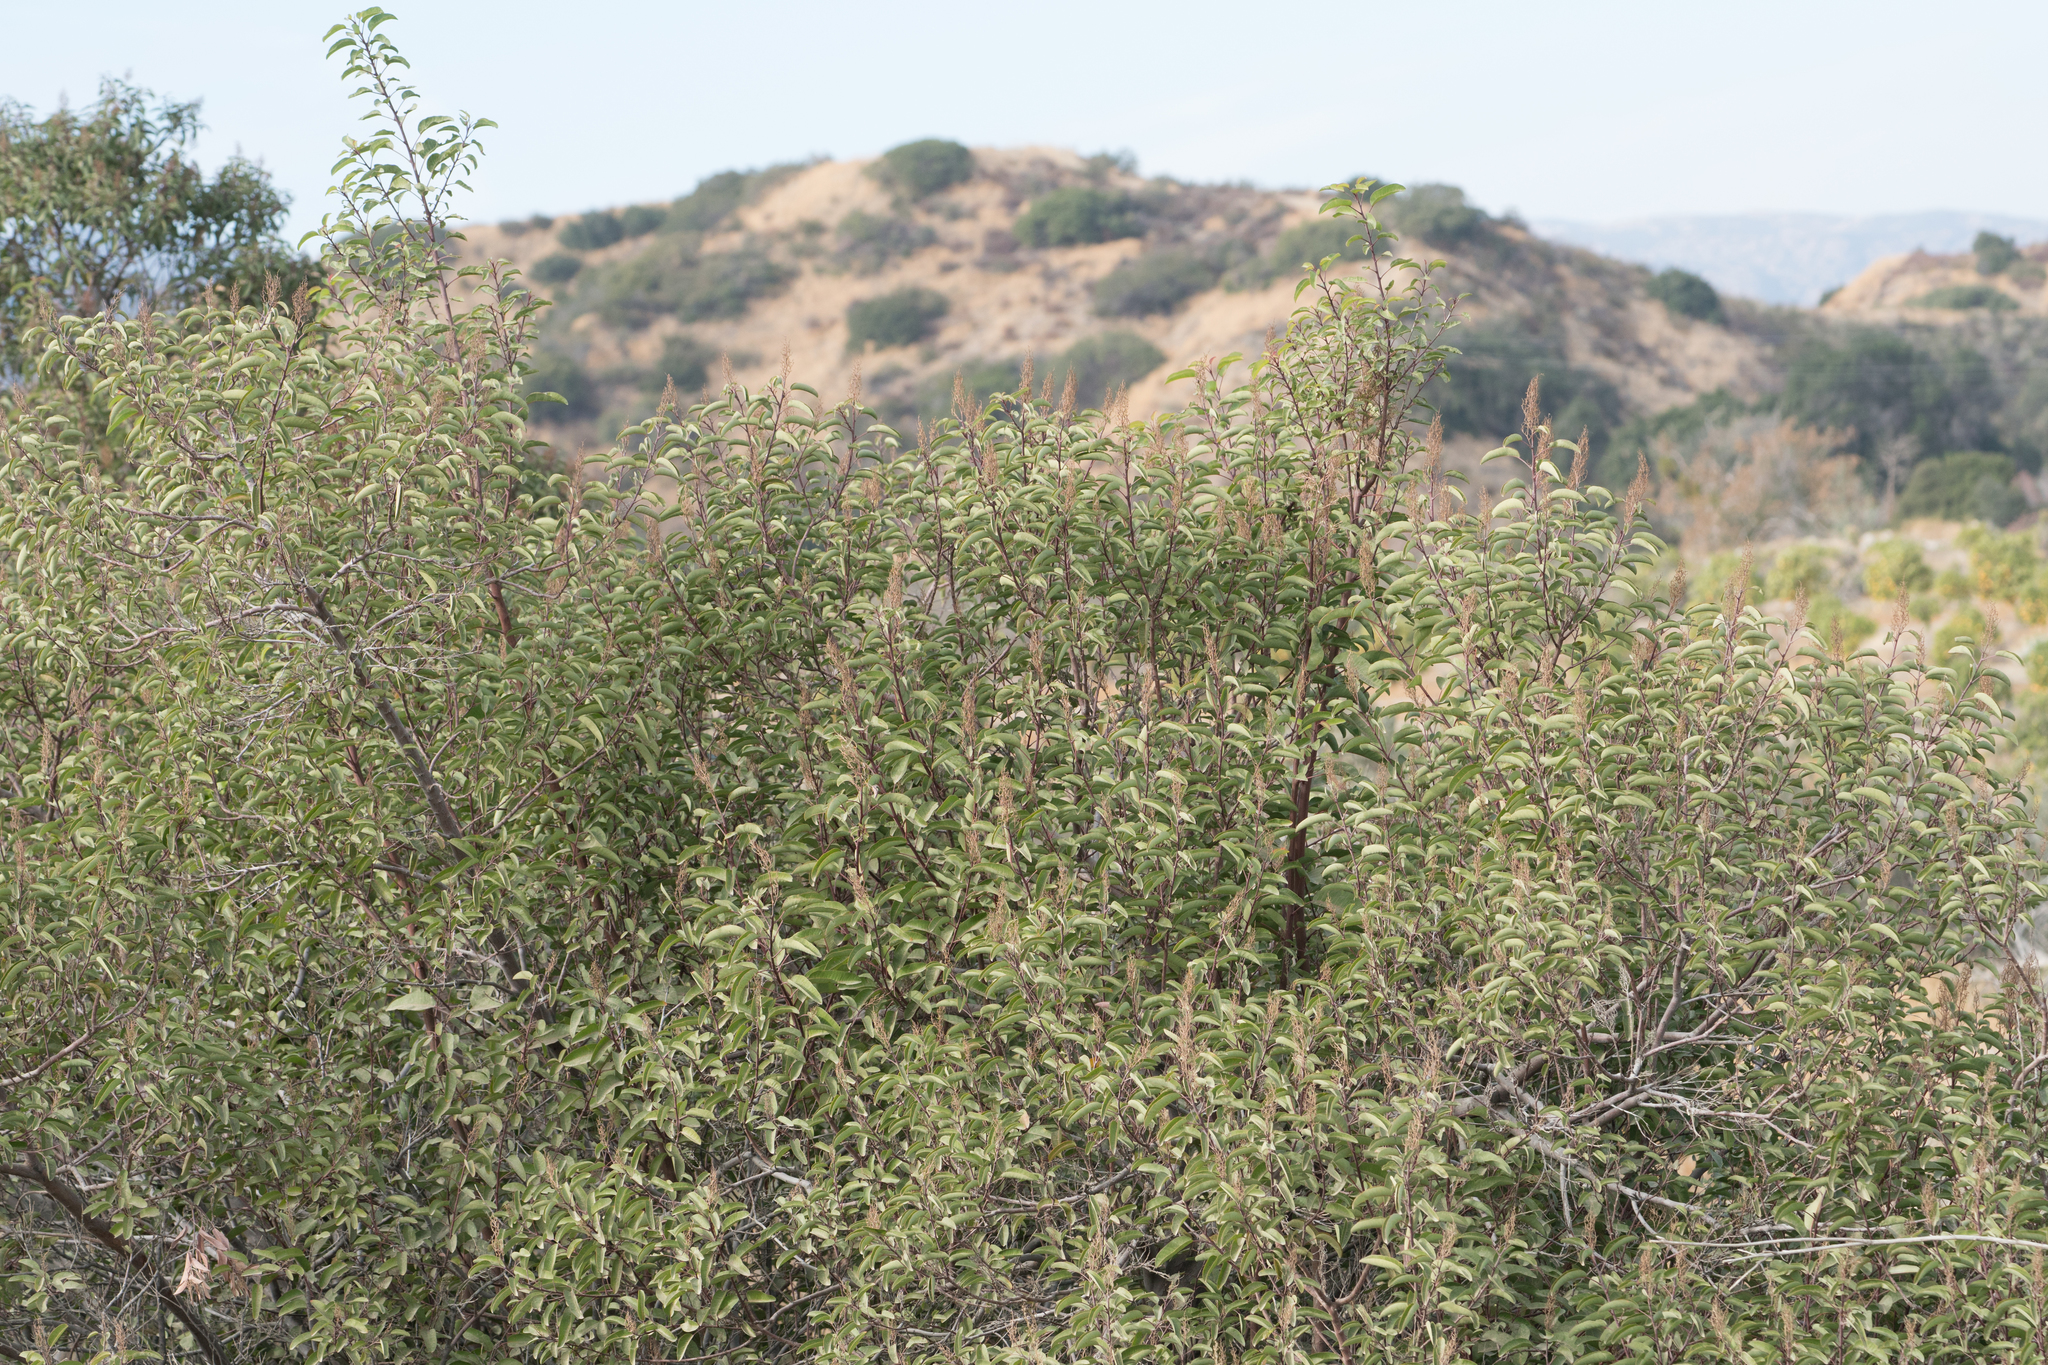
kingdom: Plantae
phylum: Tracheophyta
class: Magnoliopsida
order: Sapindales
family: Anacardiaceae
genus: Malosma
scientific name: Malosma laurina
